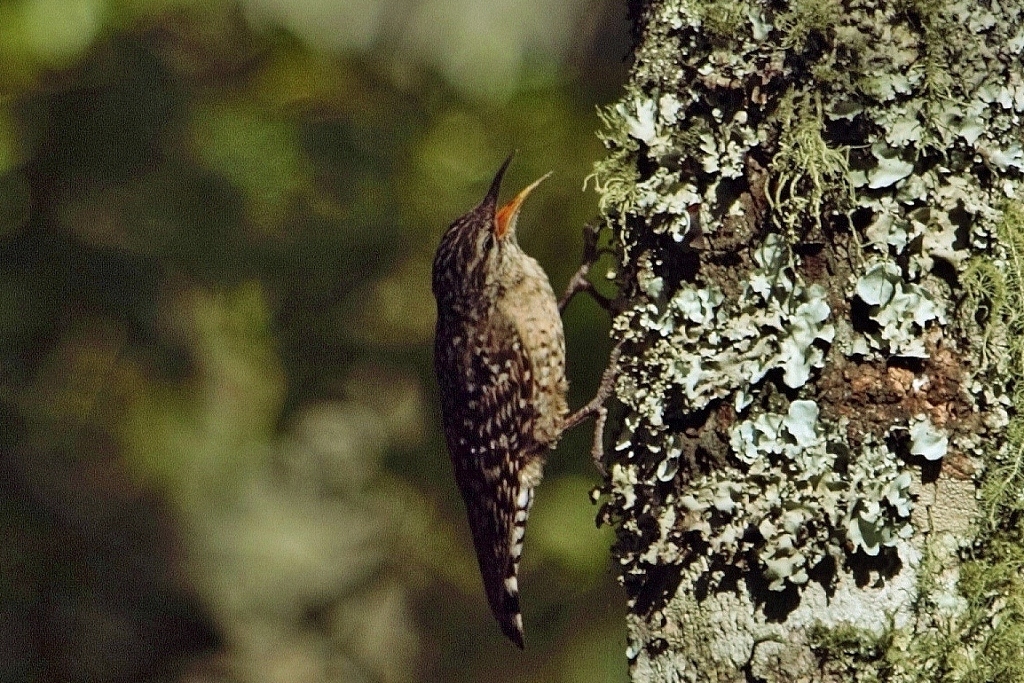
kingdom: Animalia
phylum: Chordata
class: Aves
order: Passeriformes
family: Certhiidae
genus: Salpornis
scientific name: Salpornis salvadori
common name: African spotted creeper
